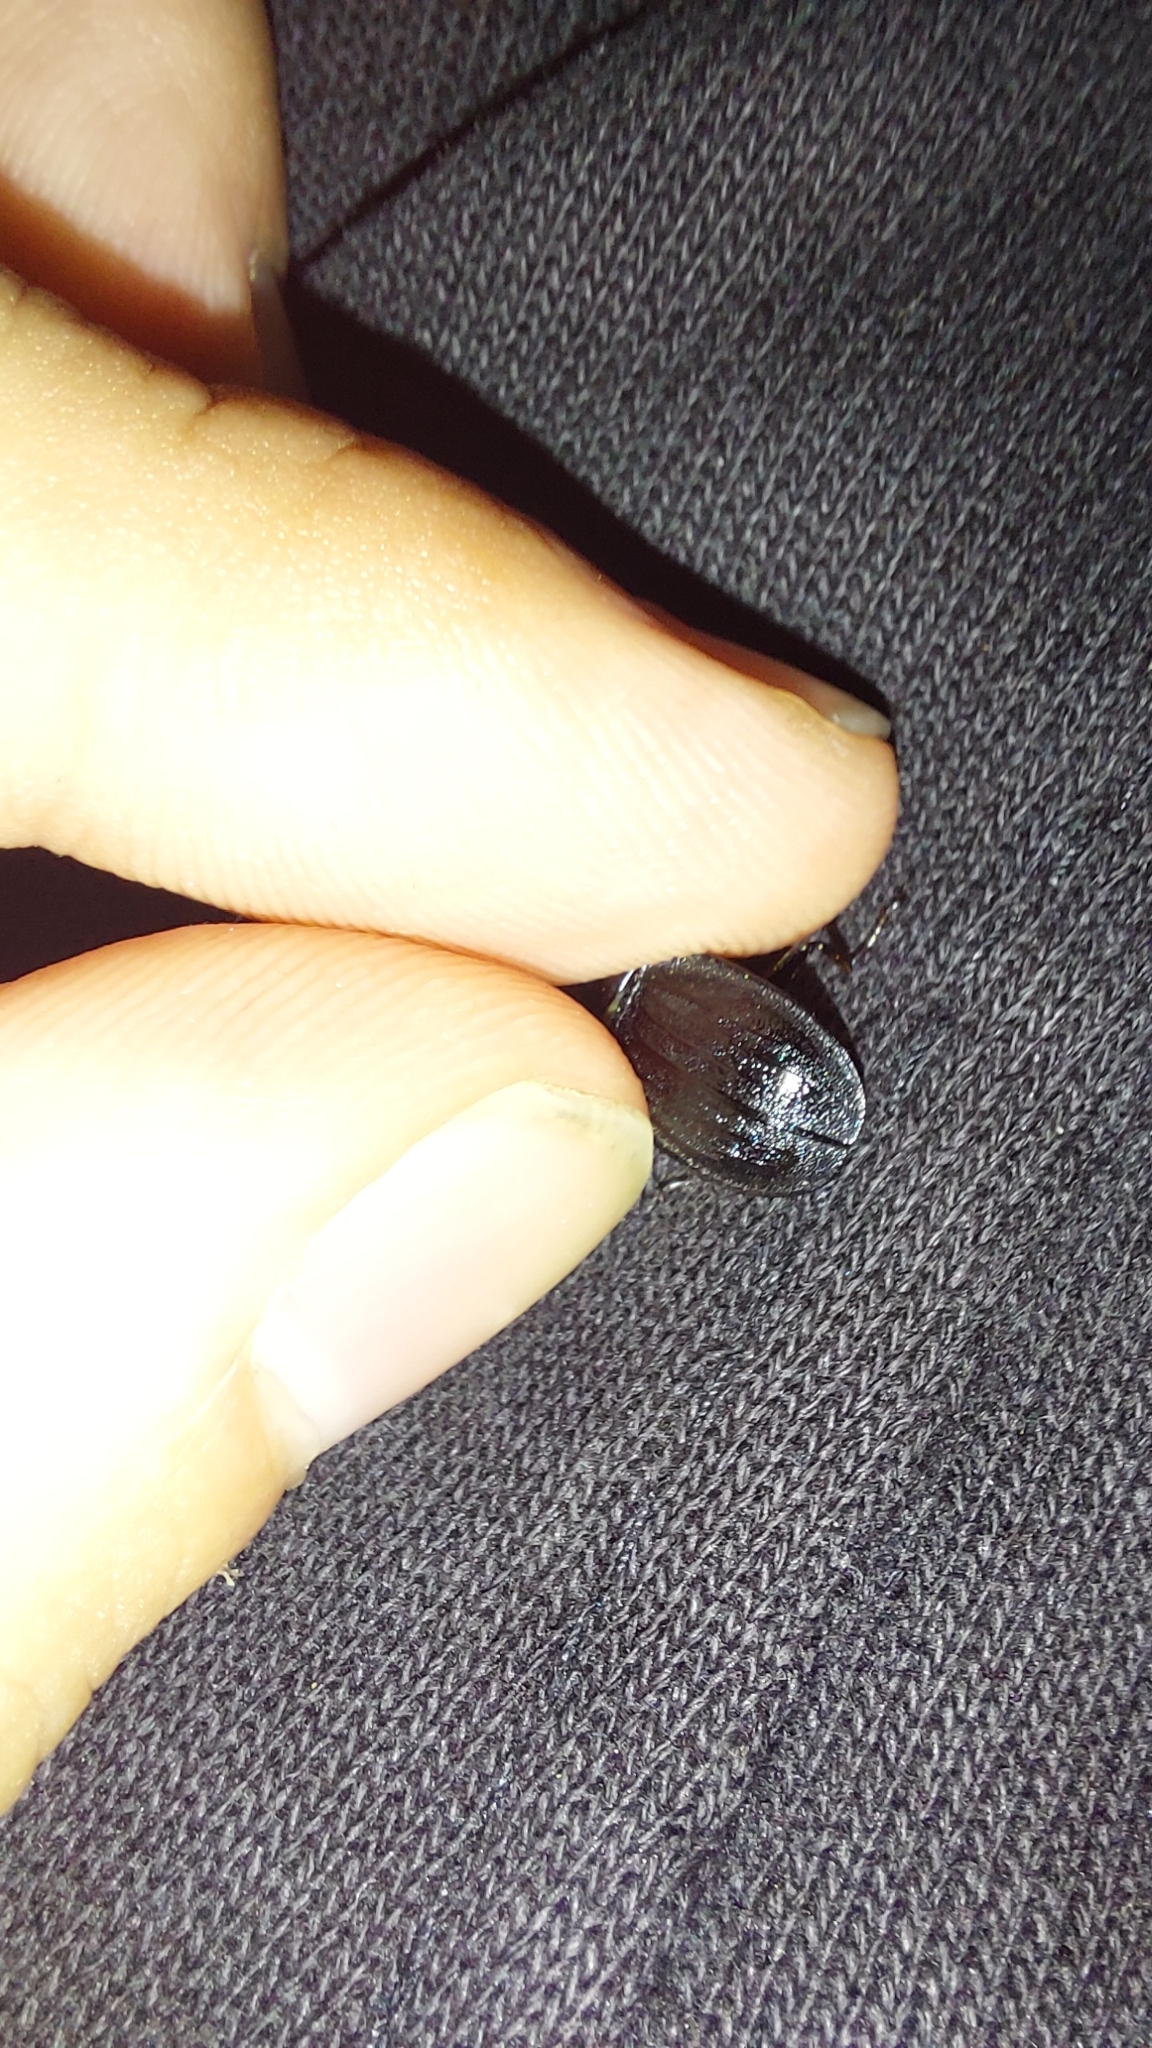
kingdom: Animalia
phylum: Arthropoda
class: Insecta
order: Coleoptera
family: Staphylinidae
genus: Silpha
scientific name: Silpha atrata
